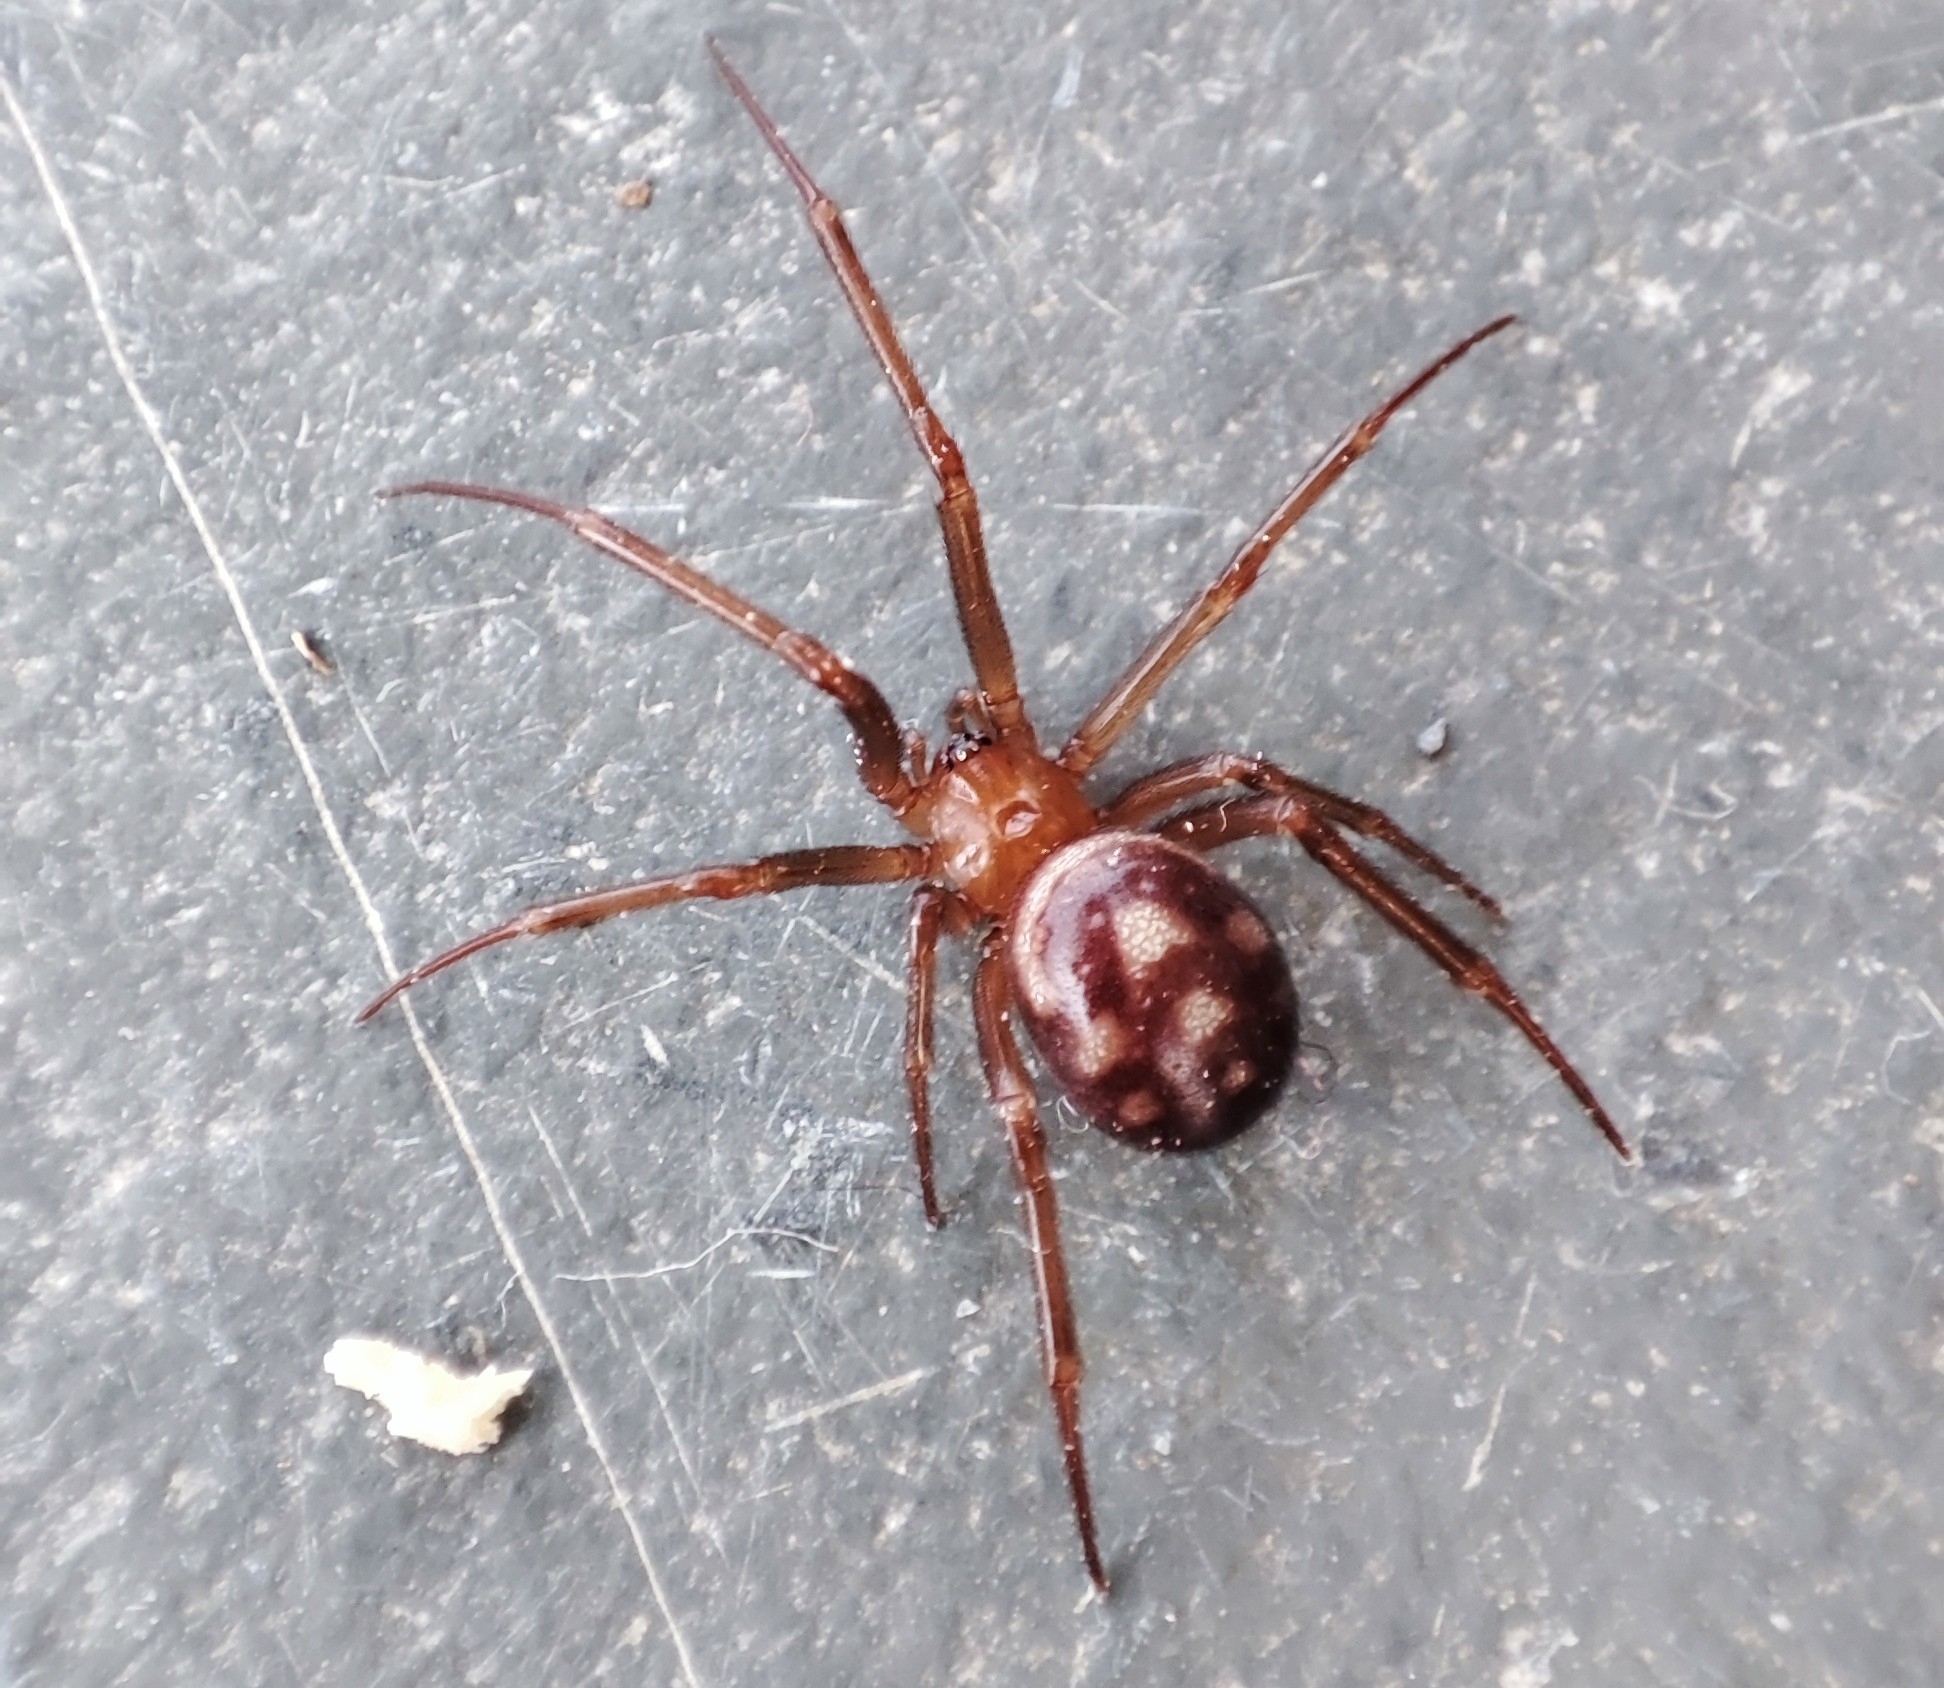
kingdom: Animalia
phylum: Arthropoda
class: Arachnida
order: Araneae
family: Theridiidae
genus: Steatoda
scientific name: Steatoda grossa
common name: False black widow
